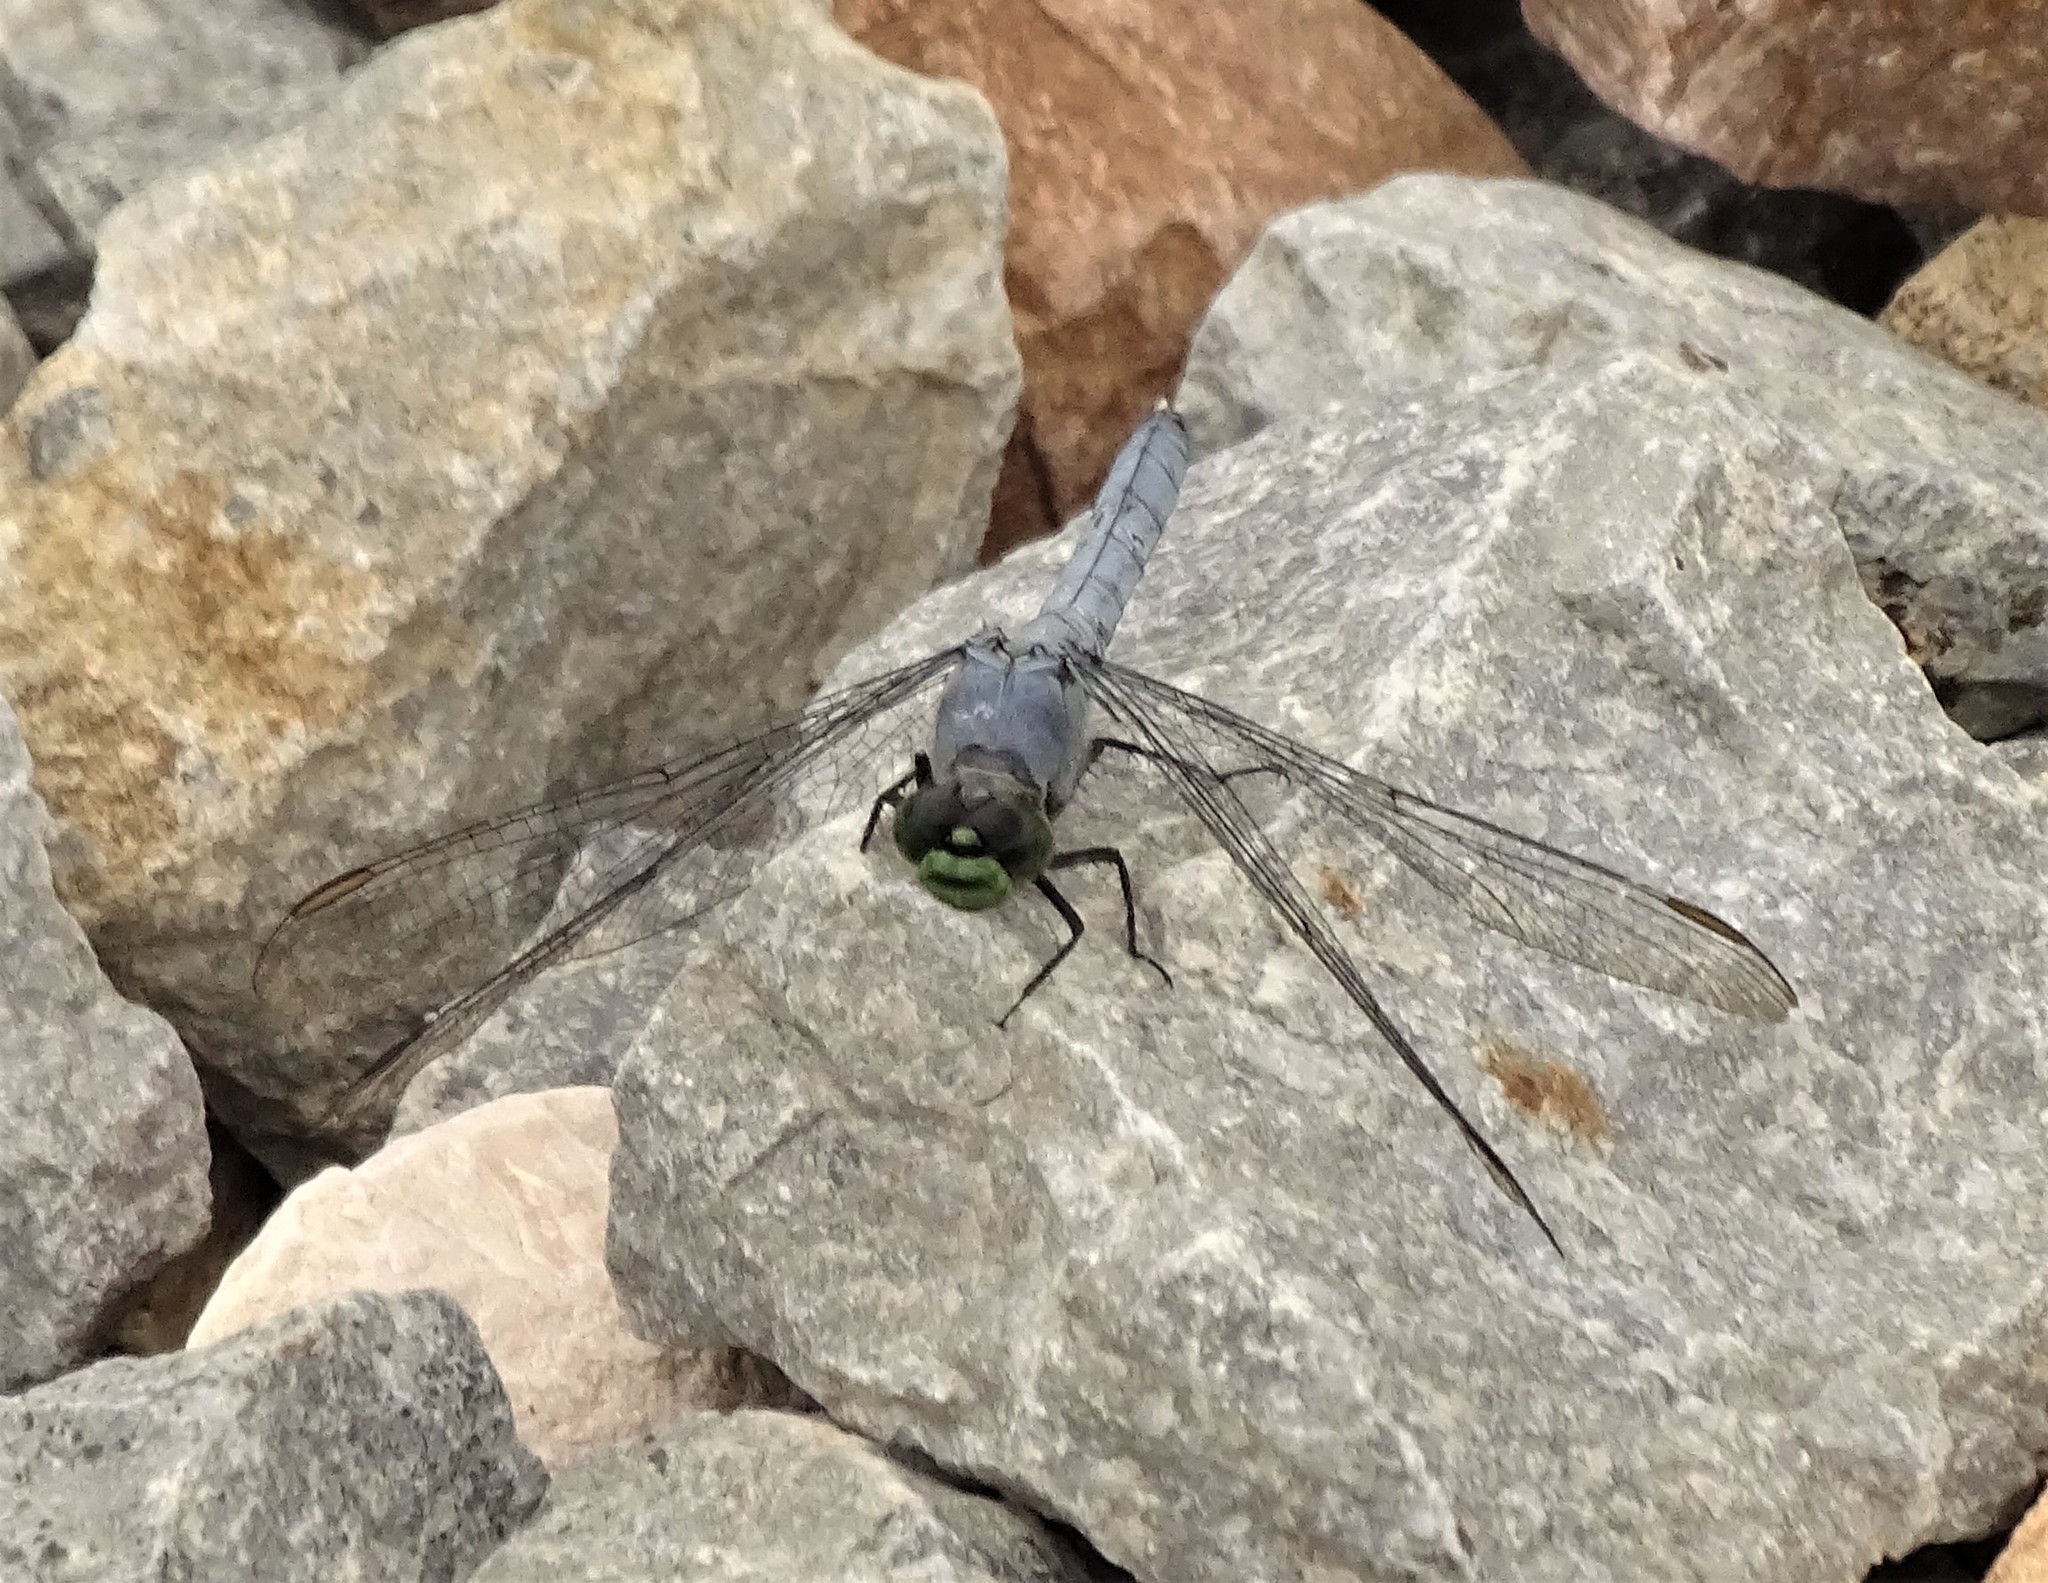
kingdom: Animalia
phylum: Arthropoda
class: Insecta
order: Odonata
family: Libellulidae
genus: Erythemis
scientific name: Erythemis simplicicollis
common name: Eastern pondhawk
